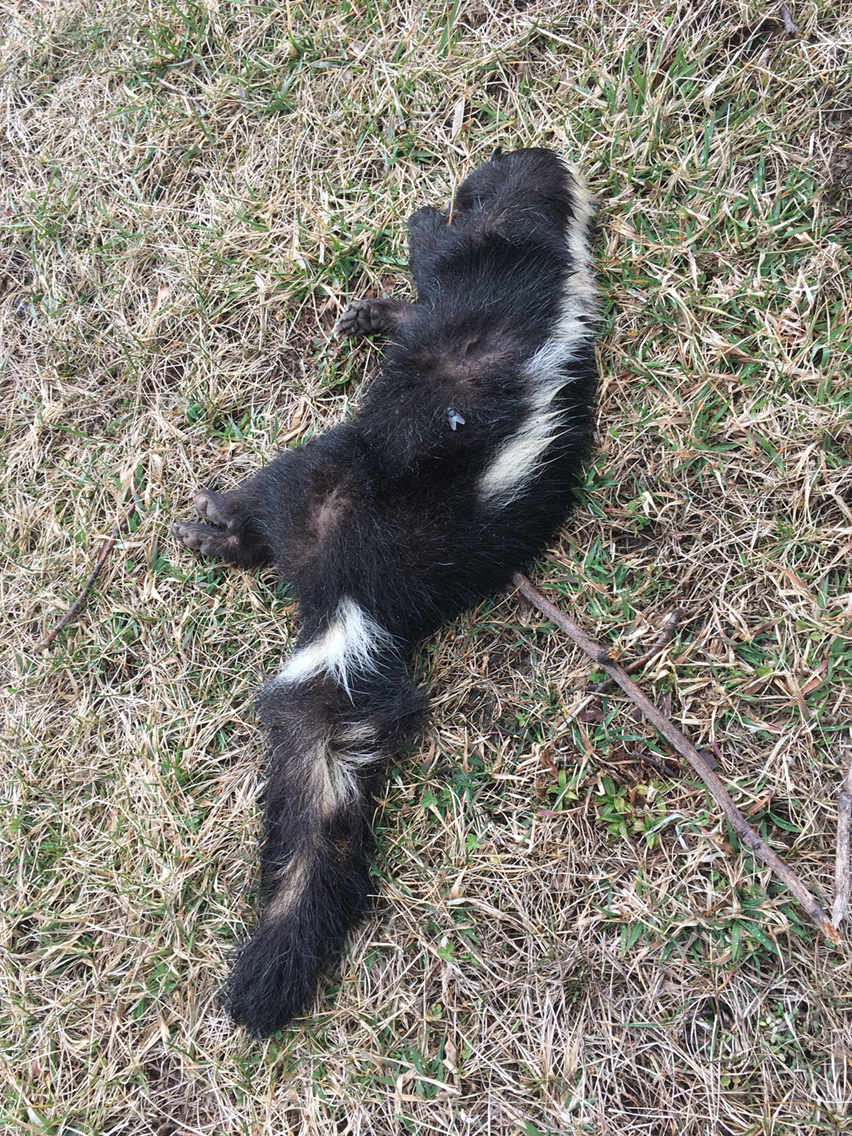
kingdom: Animalia
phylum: Chordata
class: Mammalia
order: Carnivora
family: Mephitidae
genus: Mephitis
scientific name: Mephitis mephitis
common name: Striped skunk
